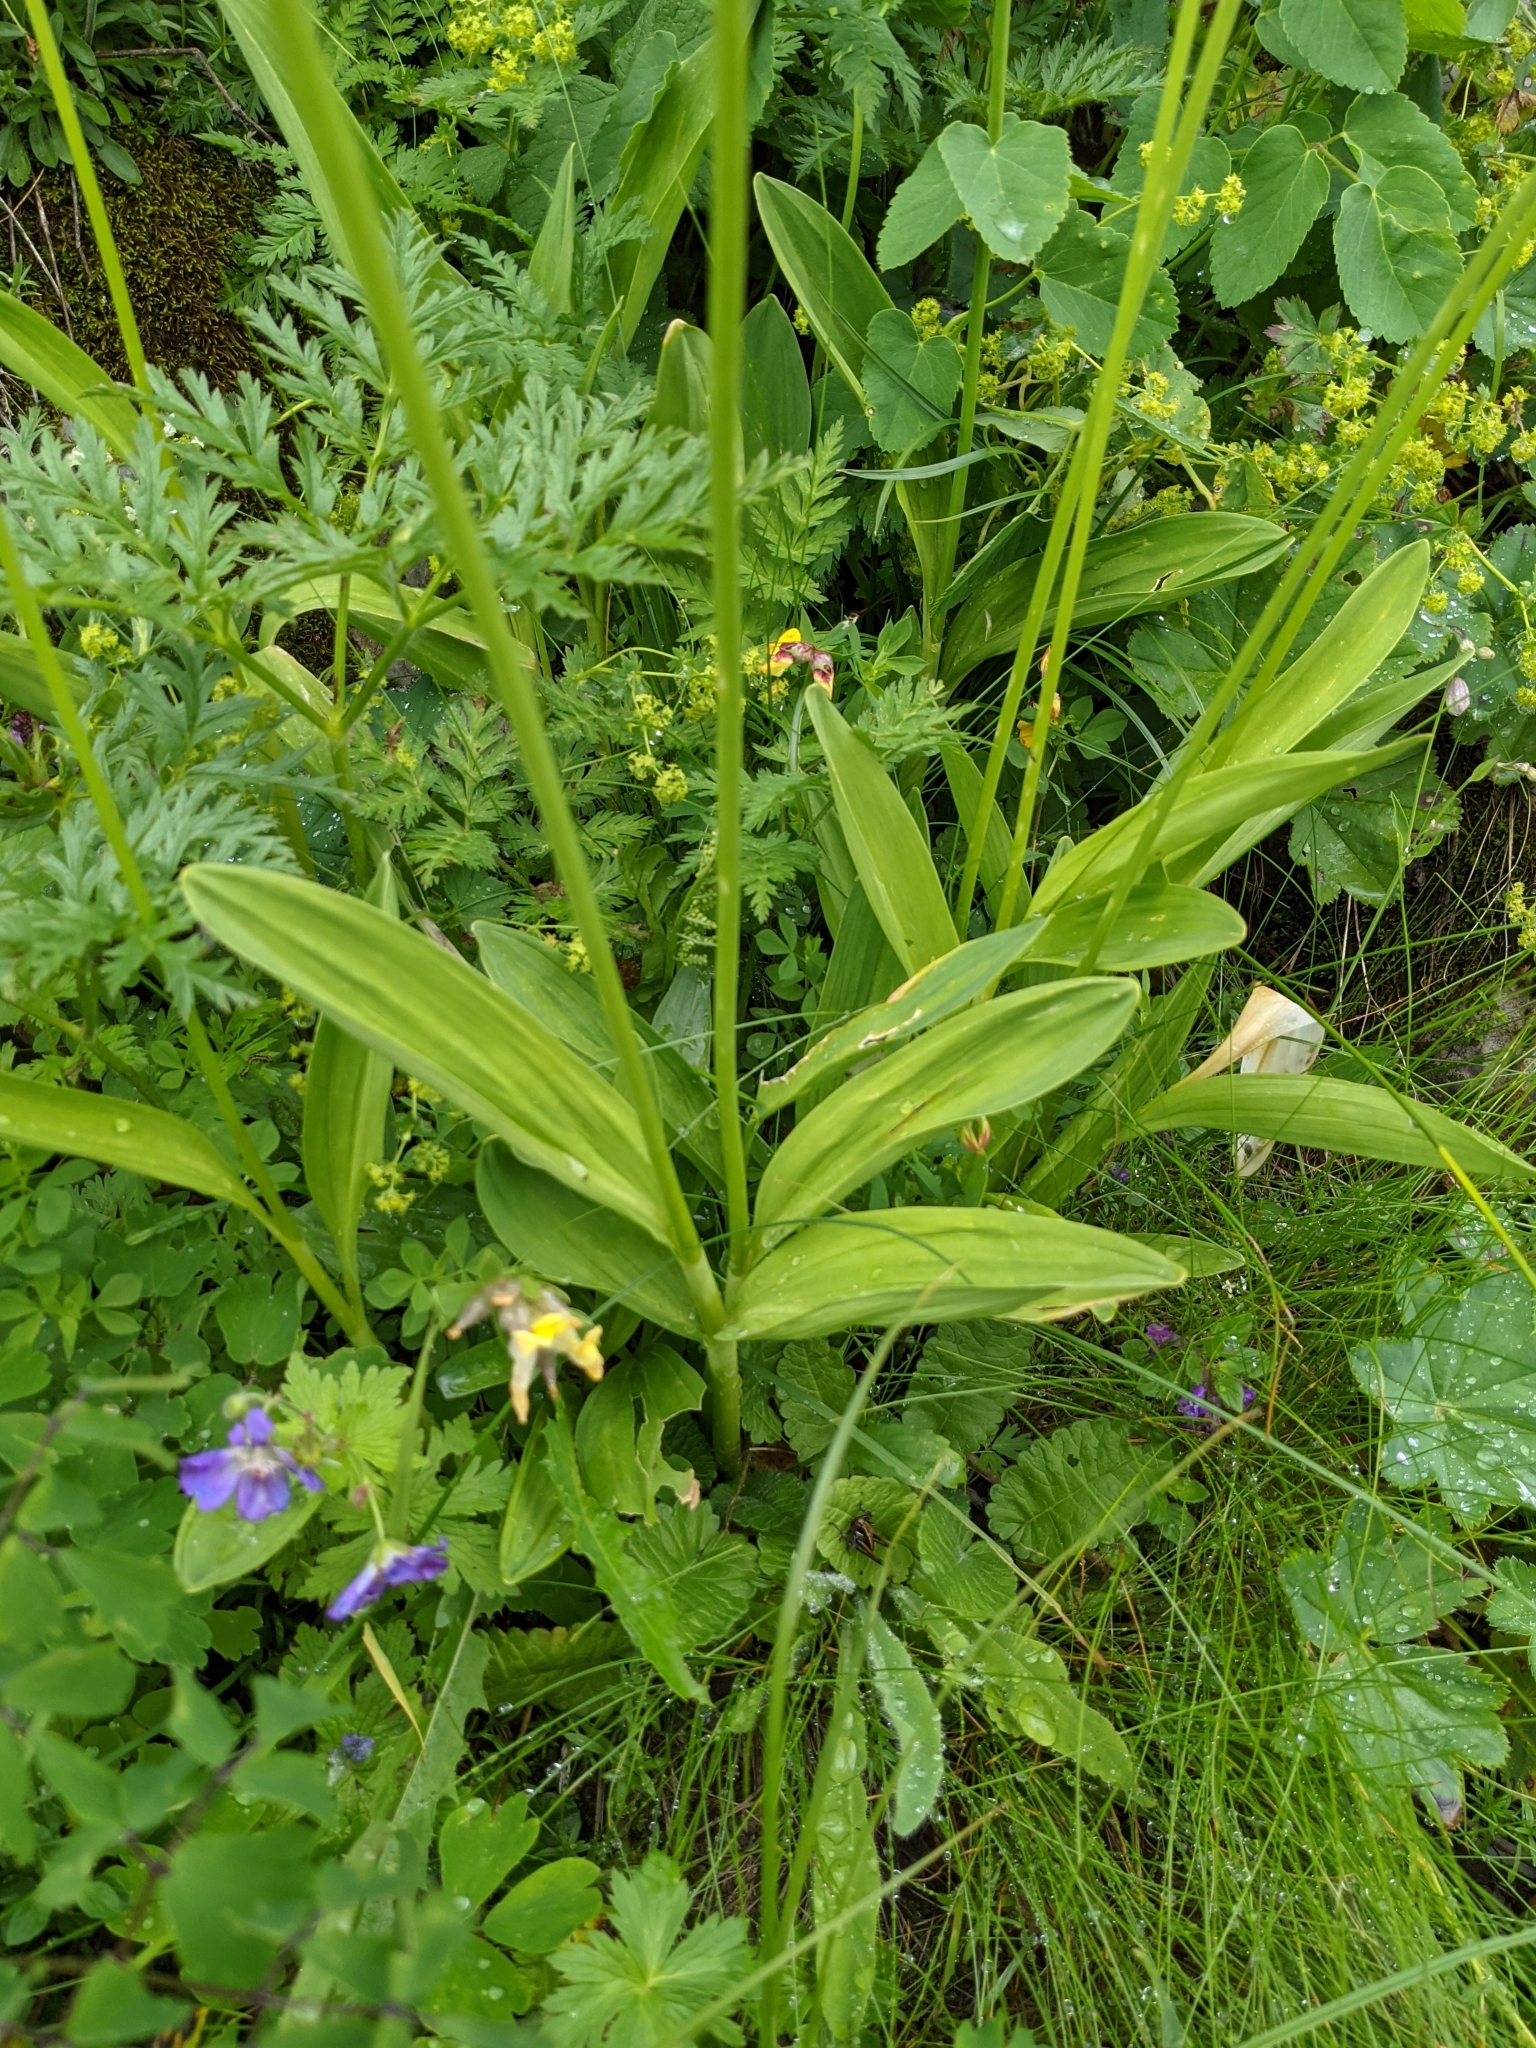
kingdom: Plantae
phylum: Tracheophyta
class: Liliopsida
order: Asparagales
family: Amaryllidaceae
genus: Allium
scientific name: Allium victorialis
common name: Alpine leek
